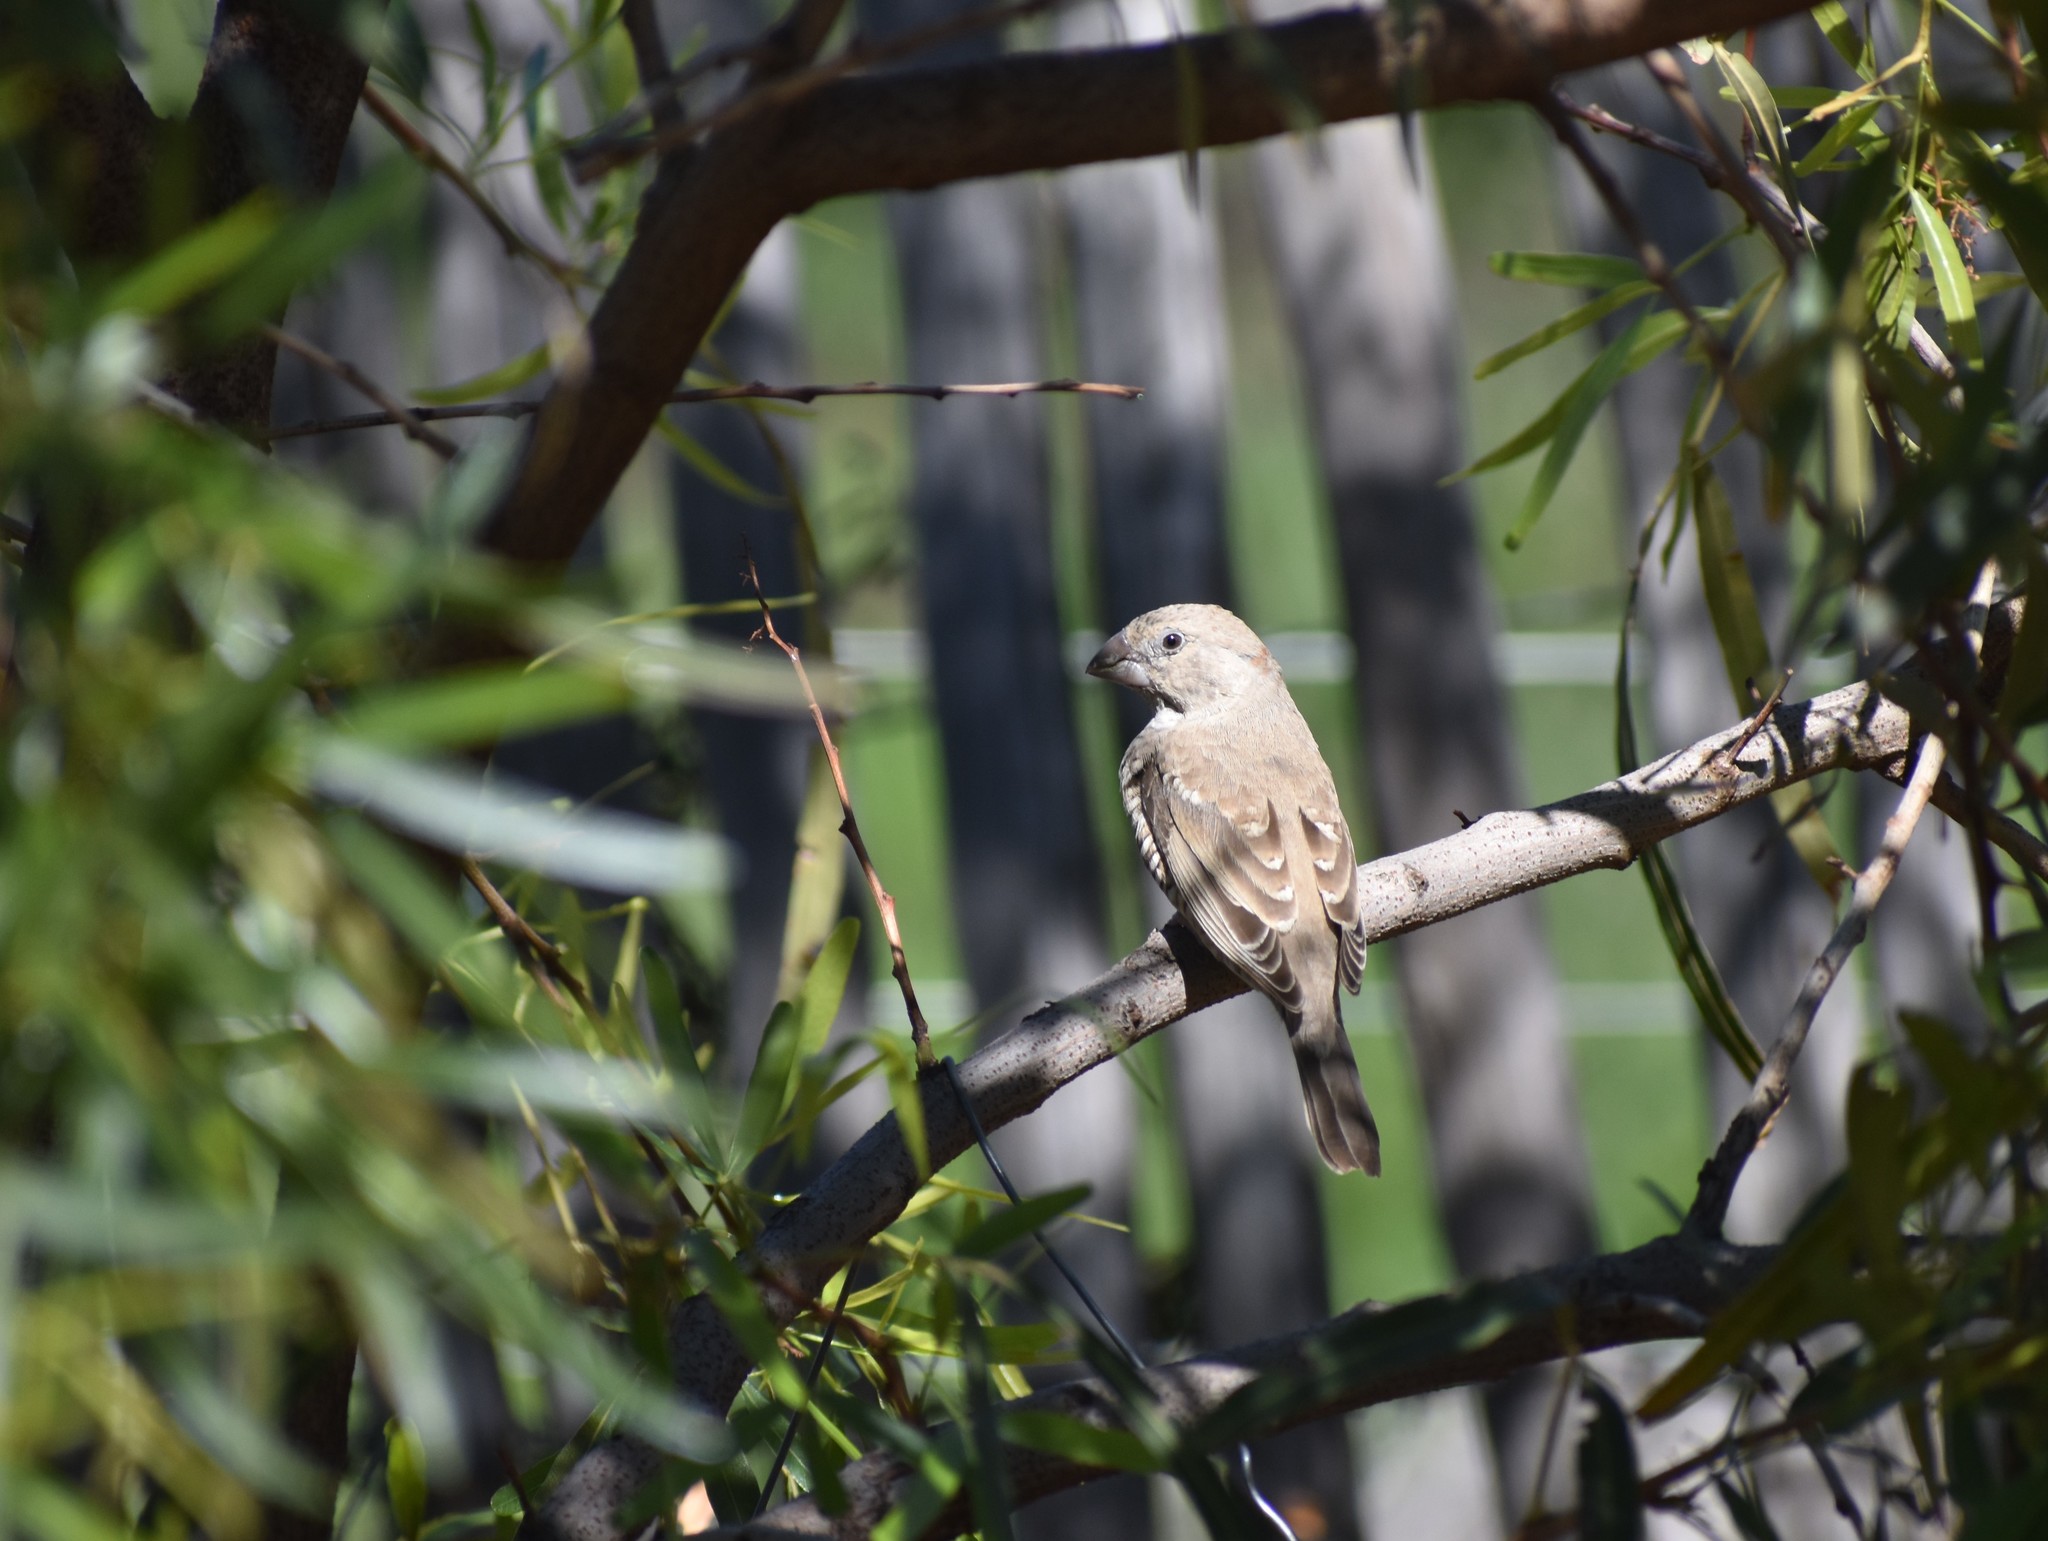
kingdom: Animalia
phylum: Chordata
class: Aves
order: Passeriformes
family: Estrildidae
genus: Amadina
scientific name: Amadina erythrocephala
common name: Red-headed finch
